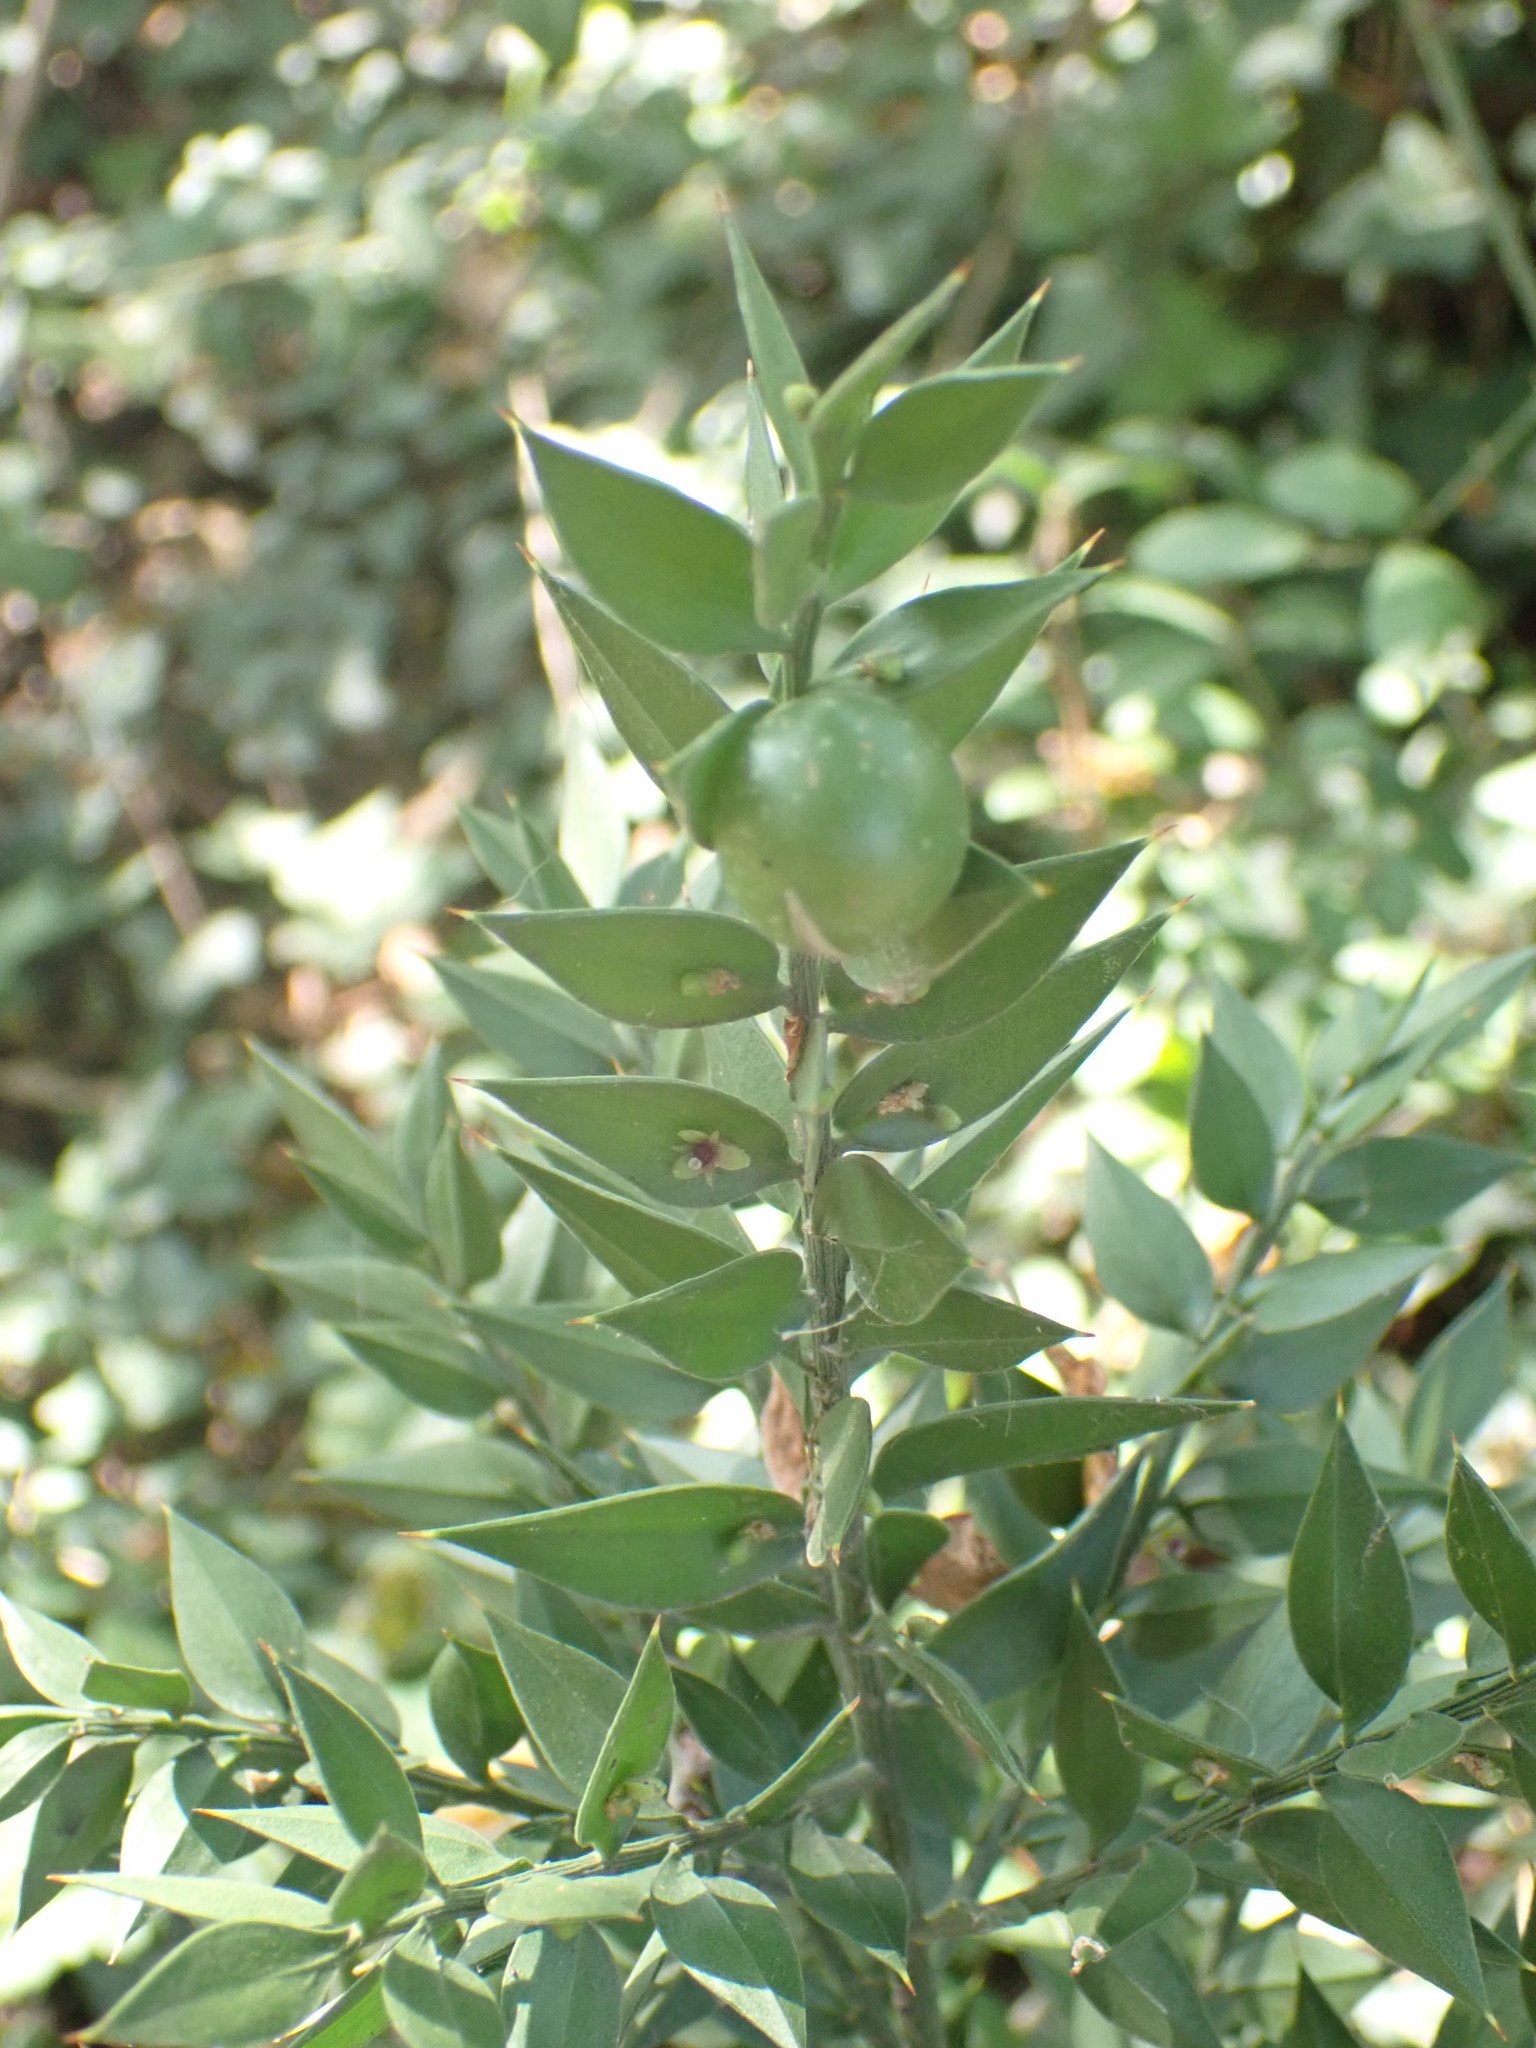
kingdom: Plantae
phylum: Tracheophyta
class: Liliopsida
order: Asparagales
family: Asparagaceae
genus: Ruscus
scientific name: Ruscus aculeatus
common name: Butcher's-broom
